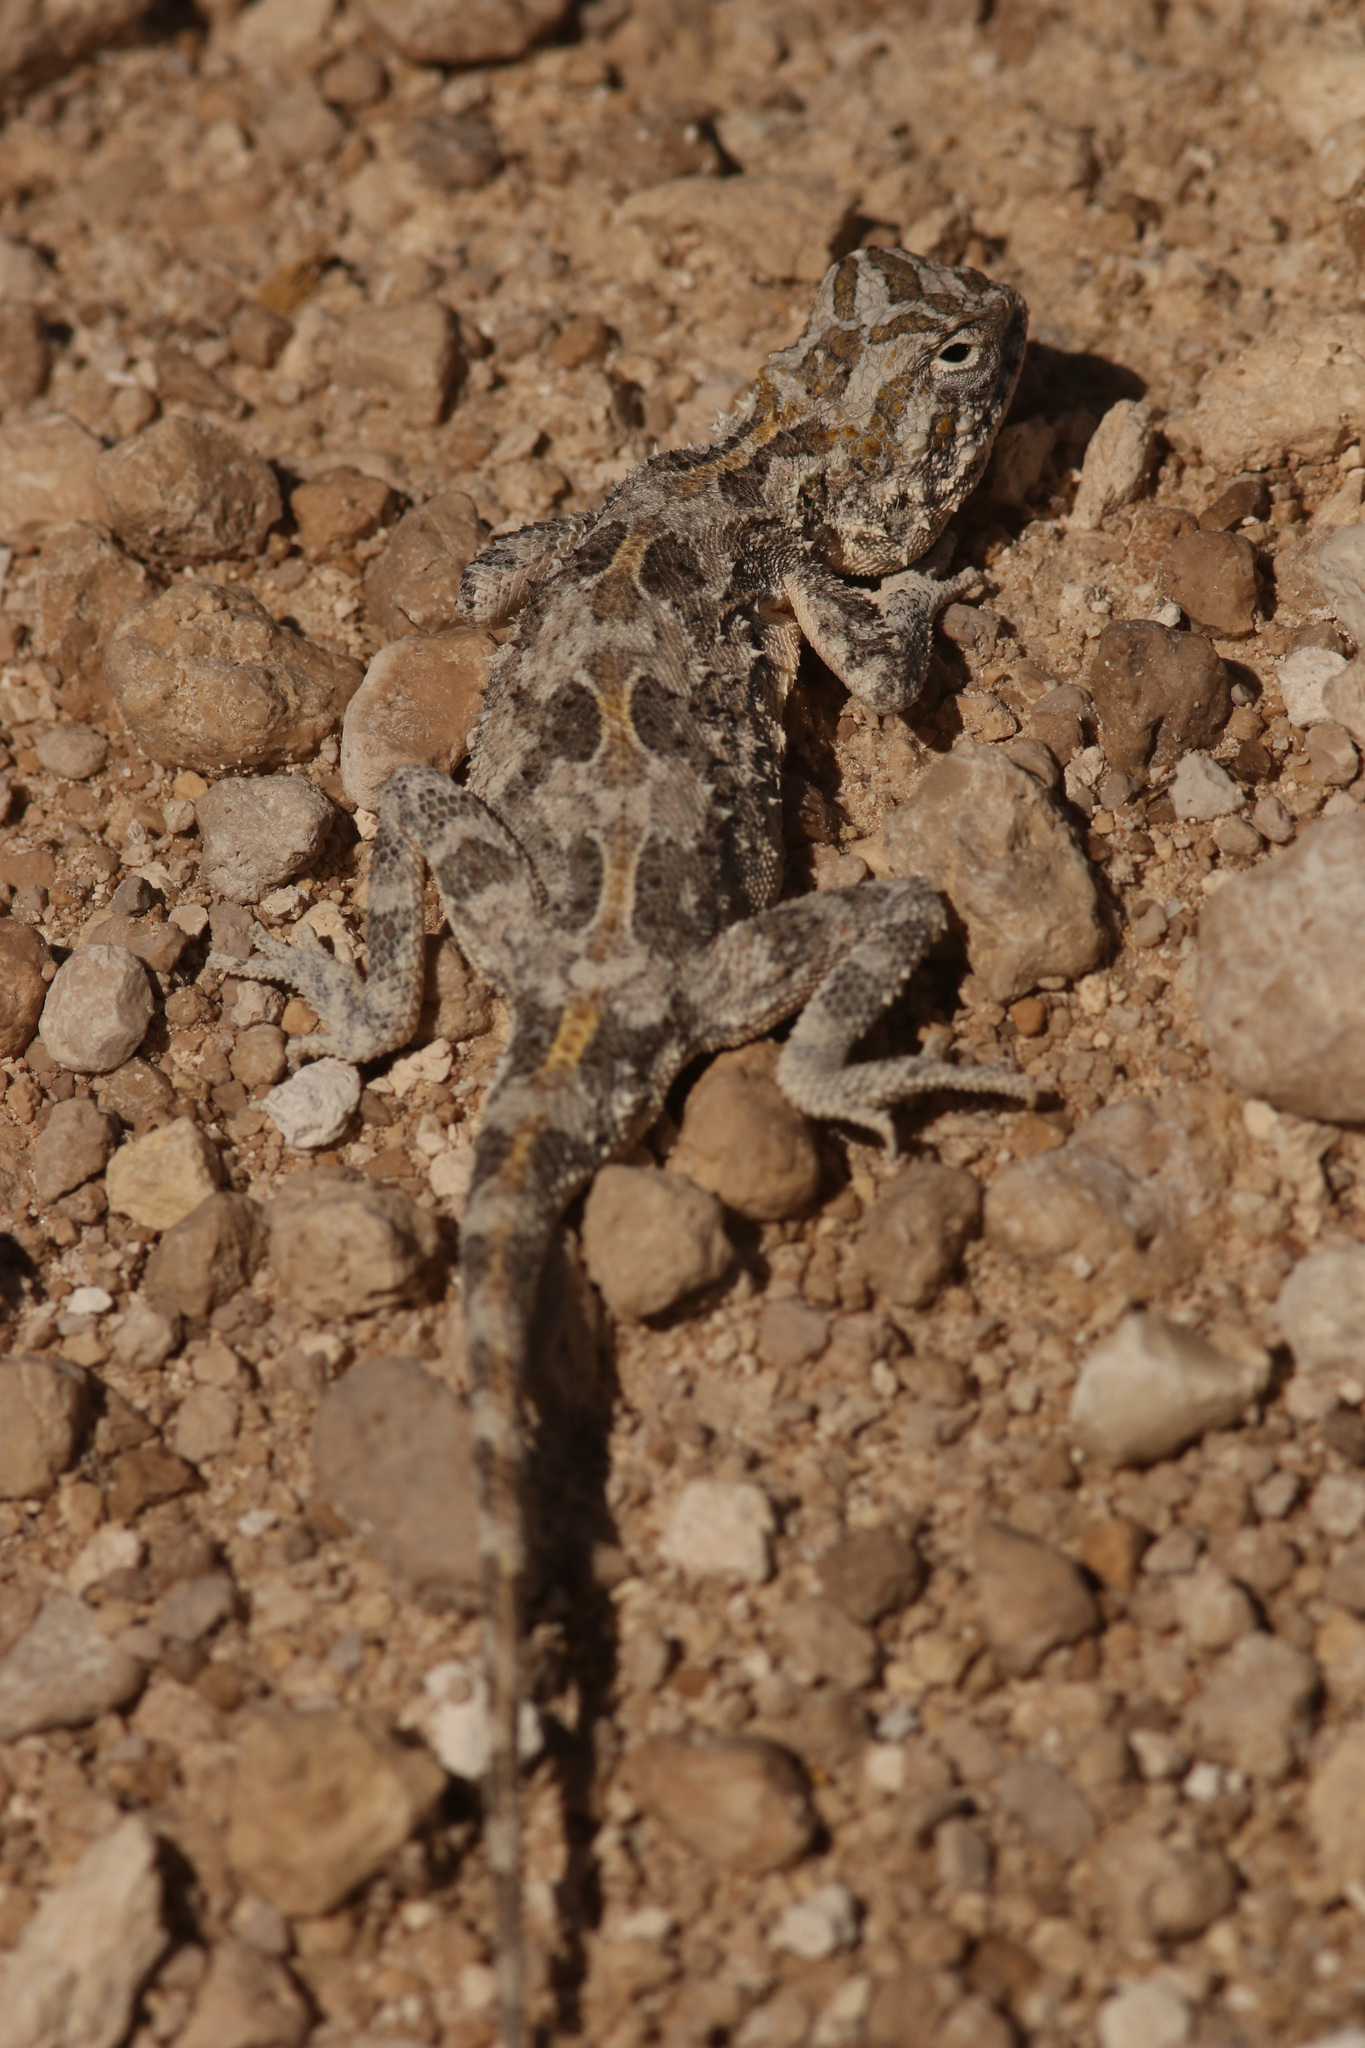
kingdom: Animalia
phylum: Chordata
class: Squamata
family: Agamidae
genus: Agama
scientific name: Agama etoshae
